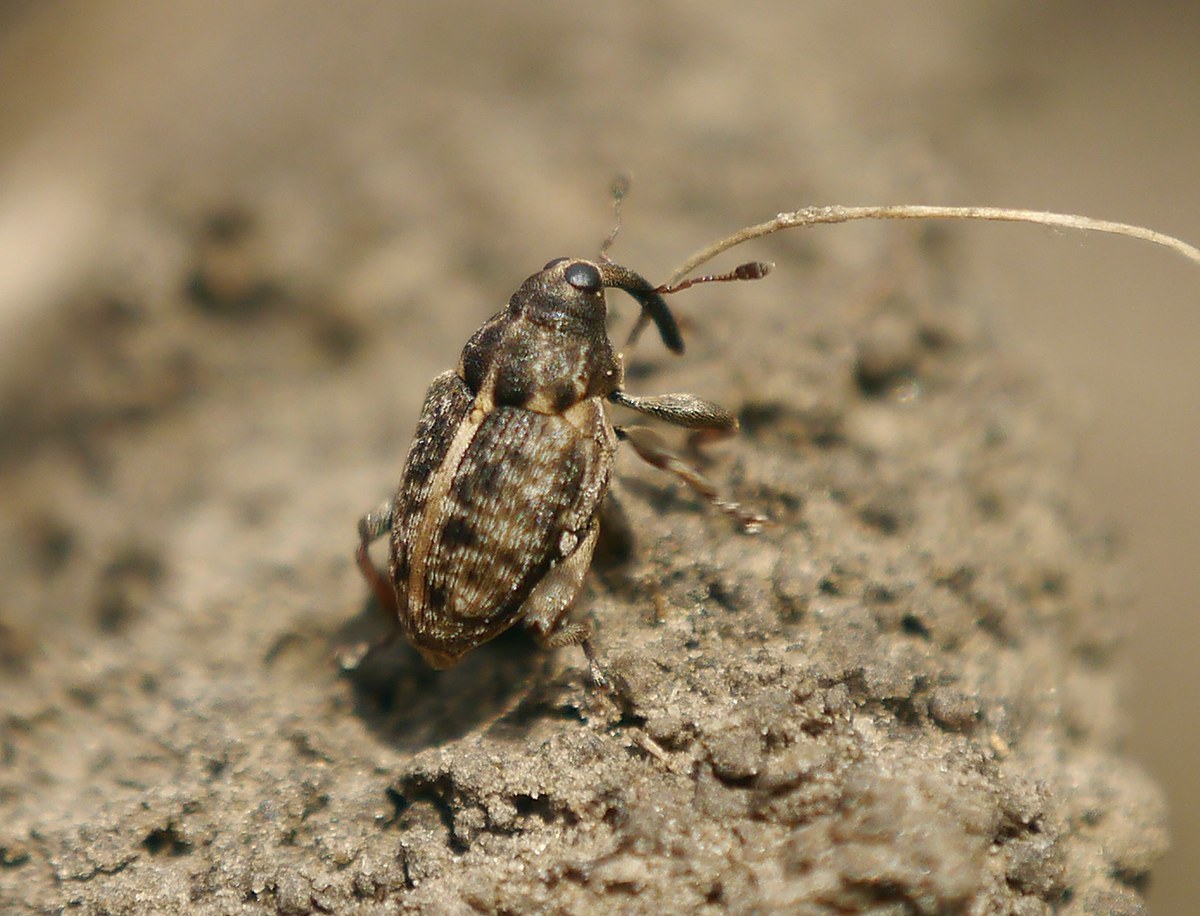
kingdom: Animalia
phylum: Arthropoda
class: Insecta
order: Coleoptera
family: Curculionidae
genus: Poecilma
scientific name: Poecilma
